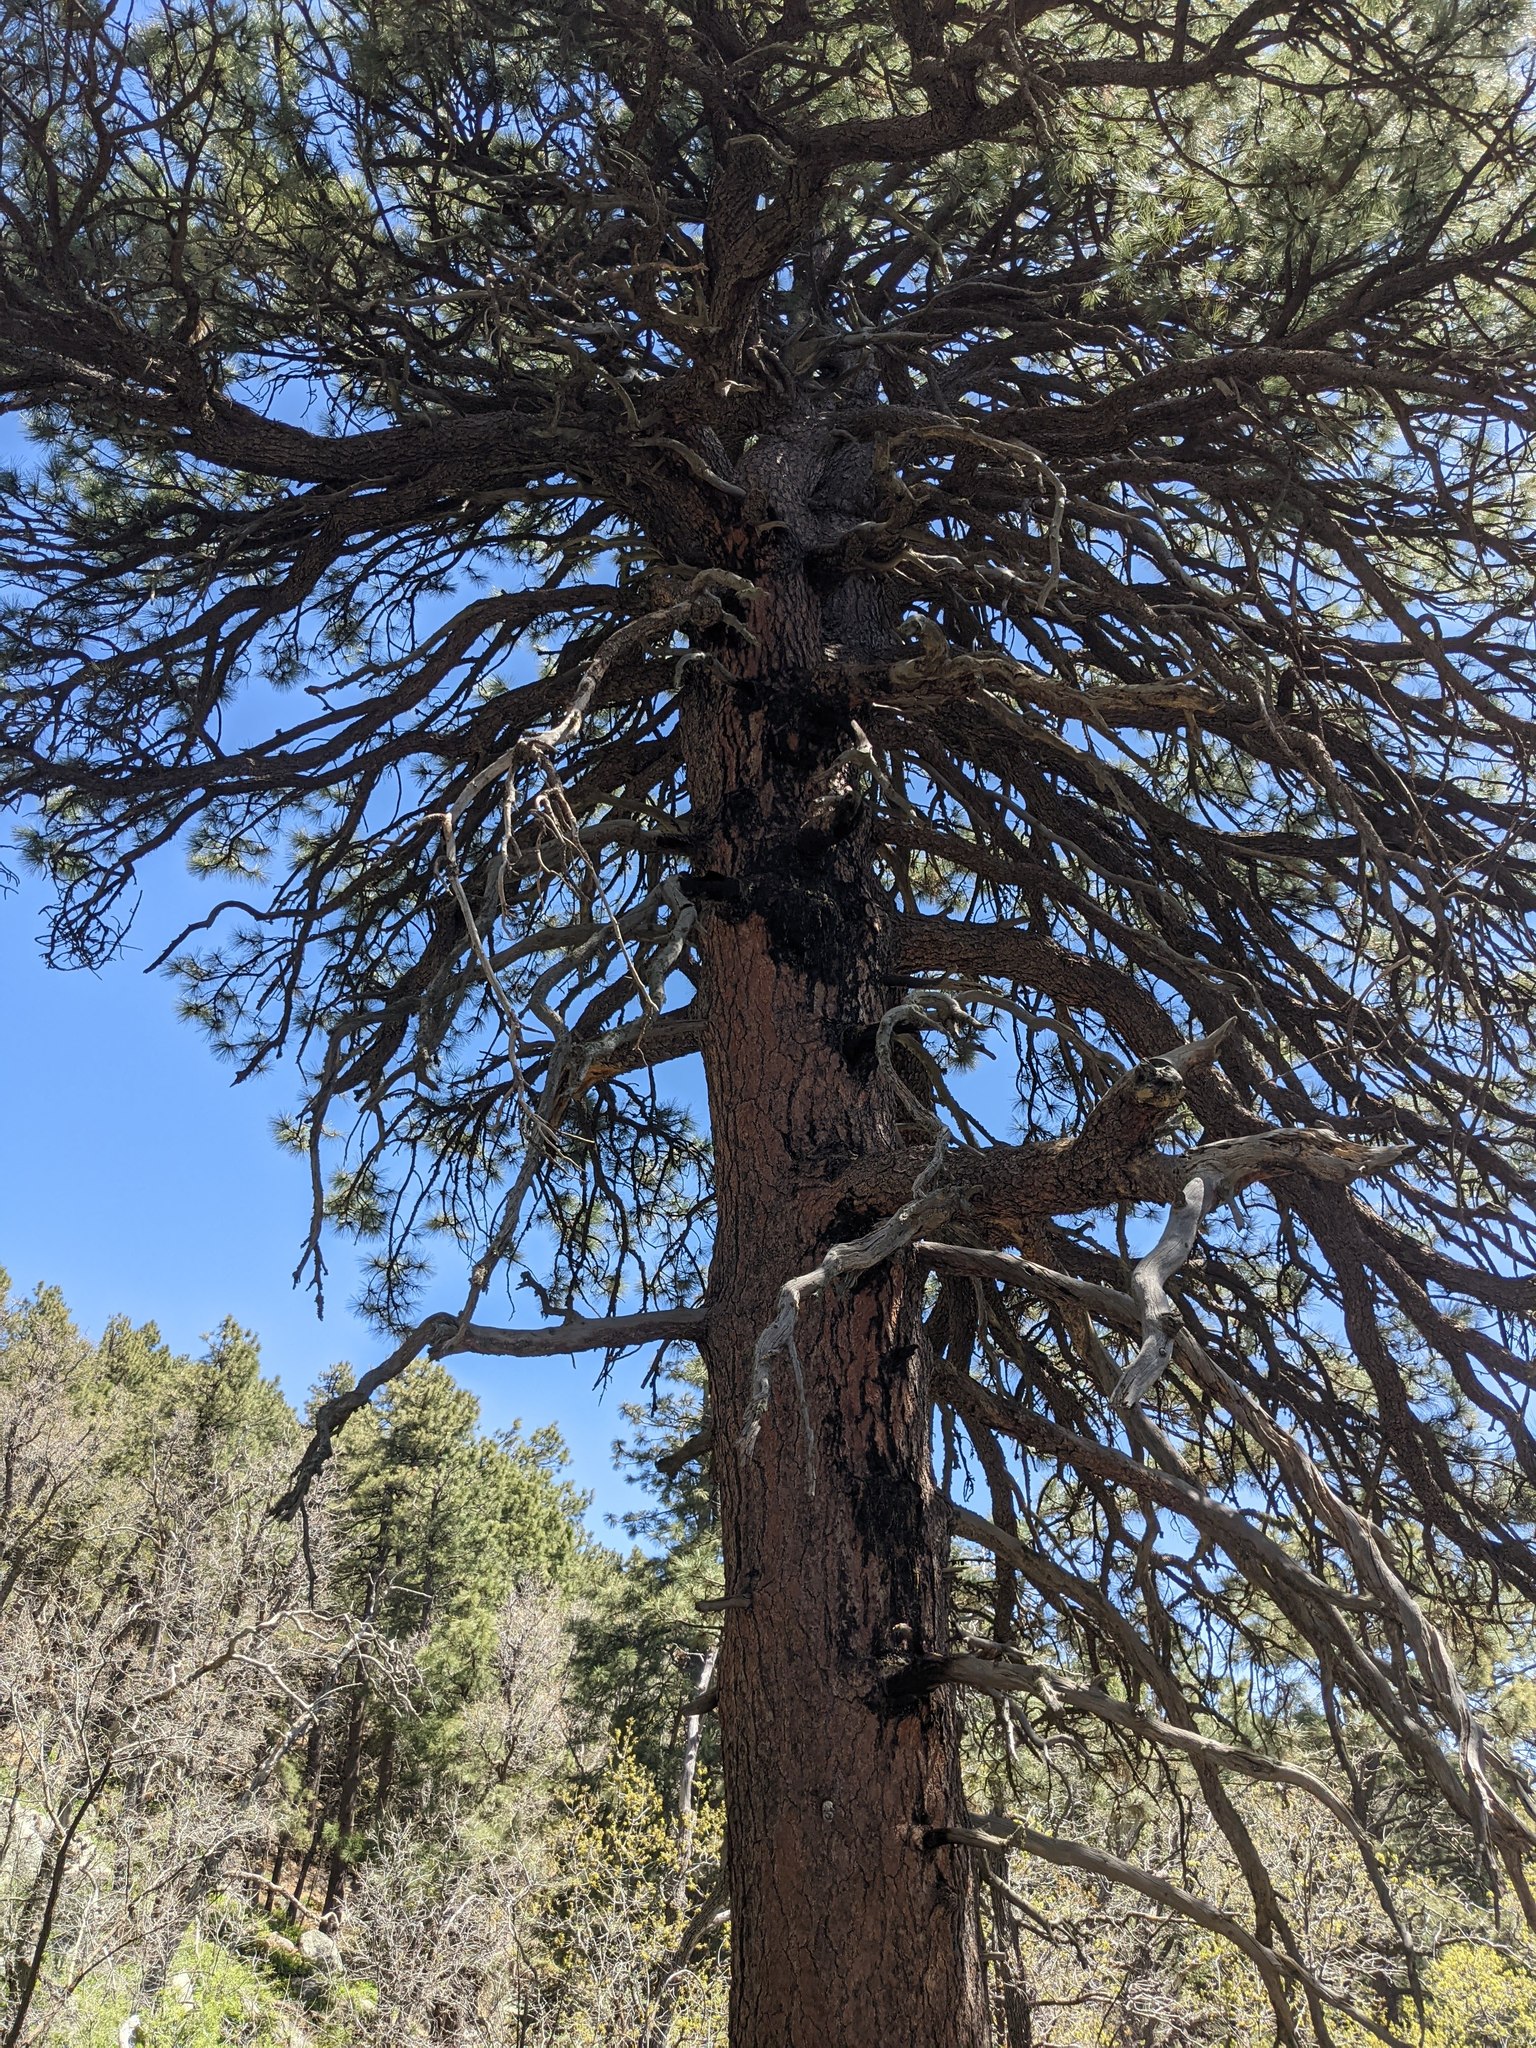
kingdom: Plantae
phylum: Tracheophyta
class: Pinopsida
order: Pinales
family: Pinaceae
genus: Pinus
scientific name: Pinus ponderosa
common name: Western yellow-pine
